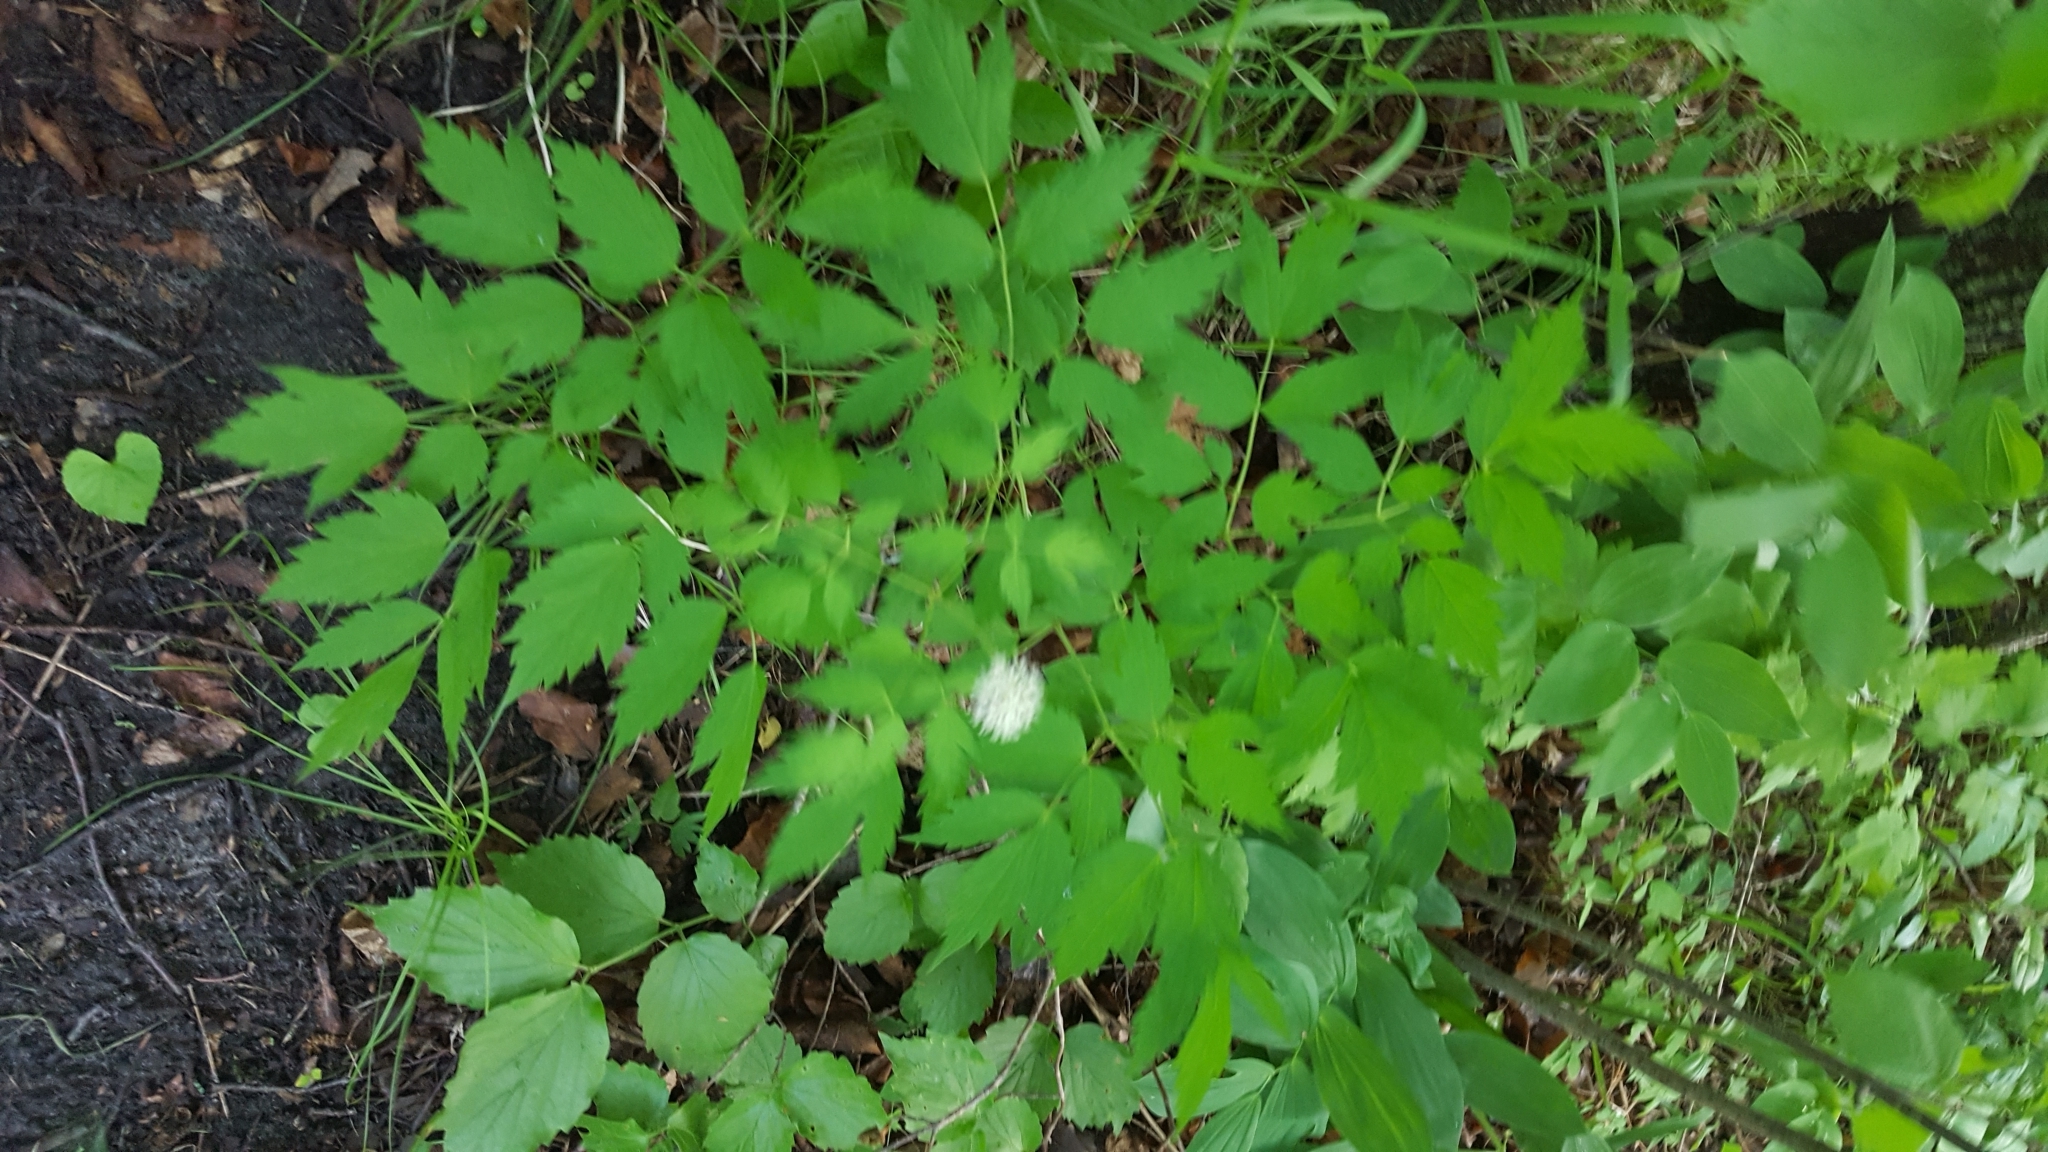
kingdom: Plantae
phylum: Tracheophyta
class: Magnoliopsida
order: Ranunculales
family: Ranunculaceae
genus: Actaea
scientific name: Actaea rubra
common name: Red baneberry
